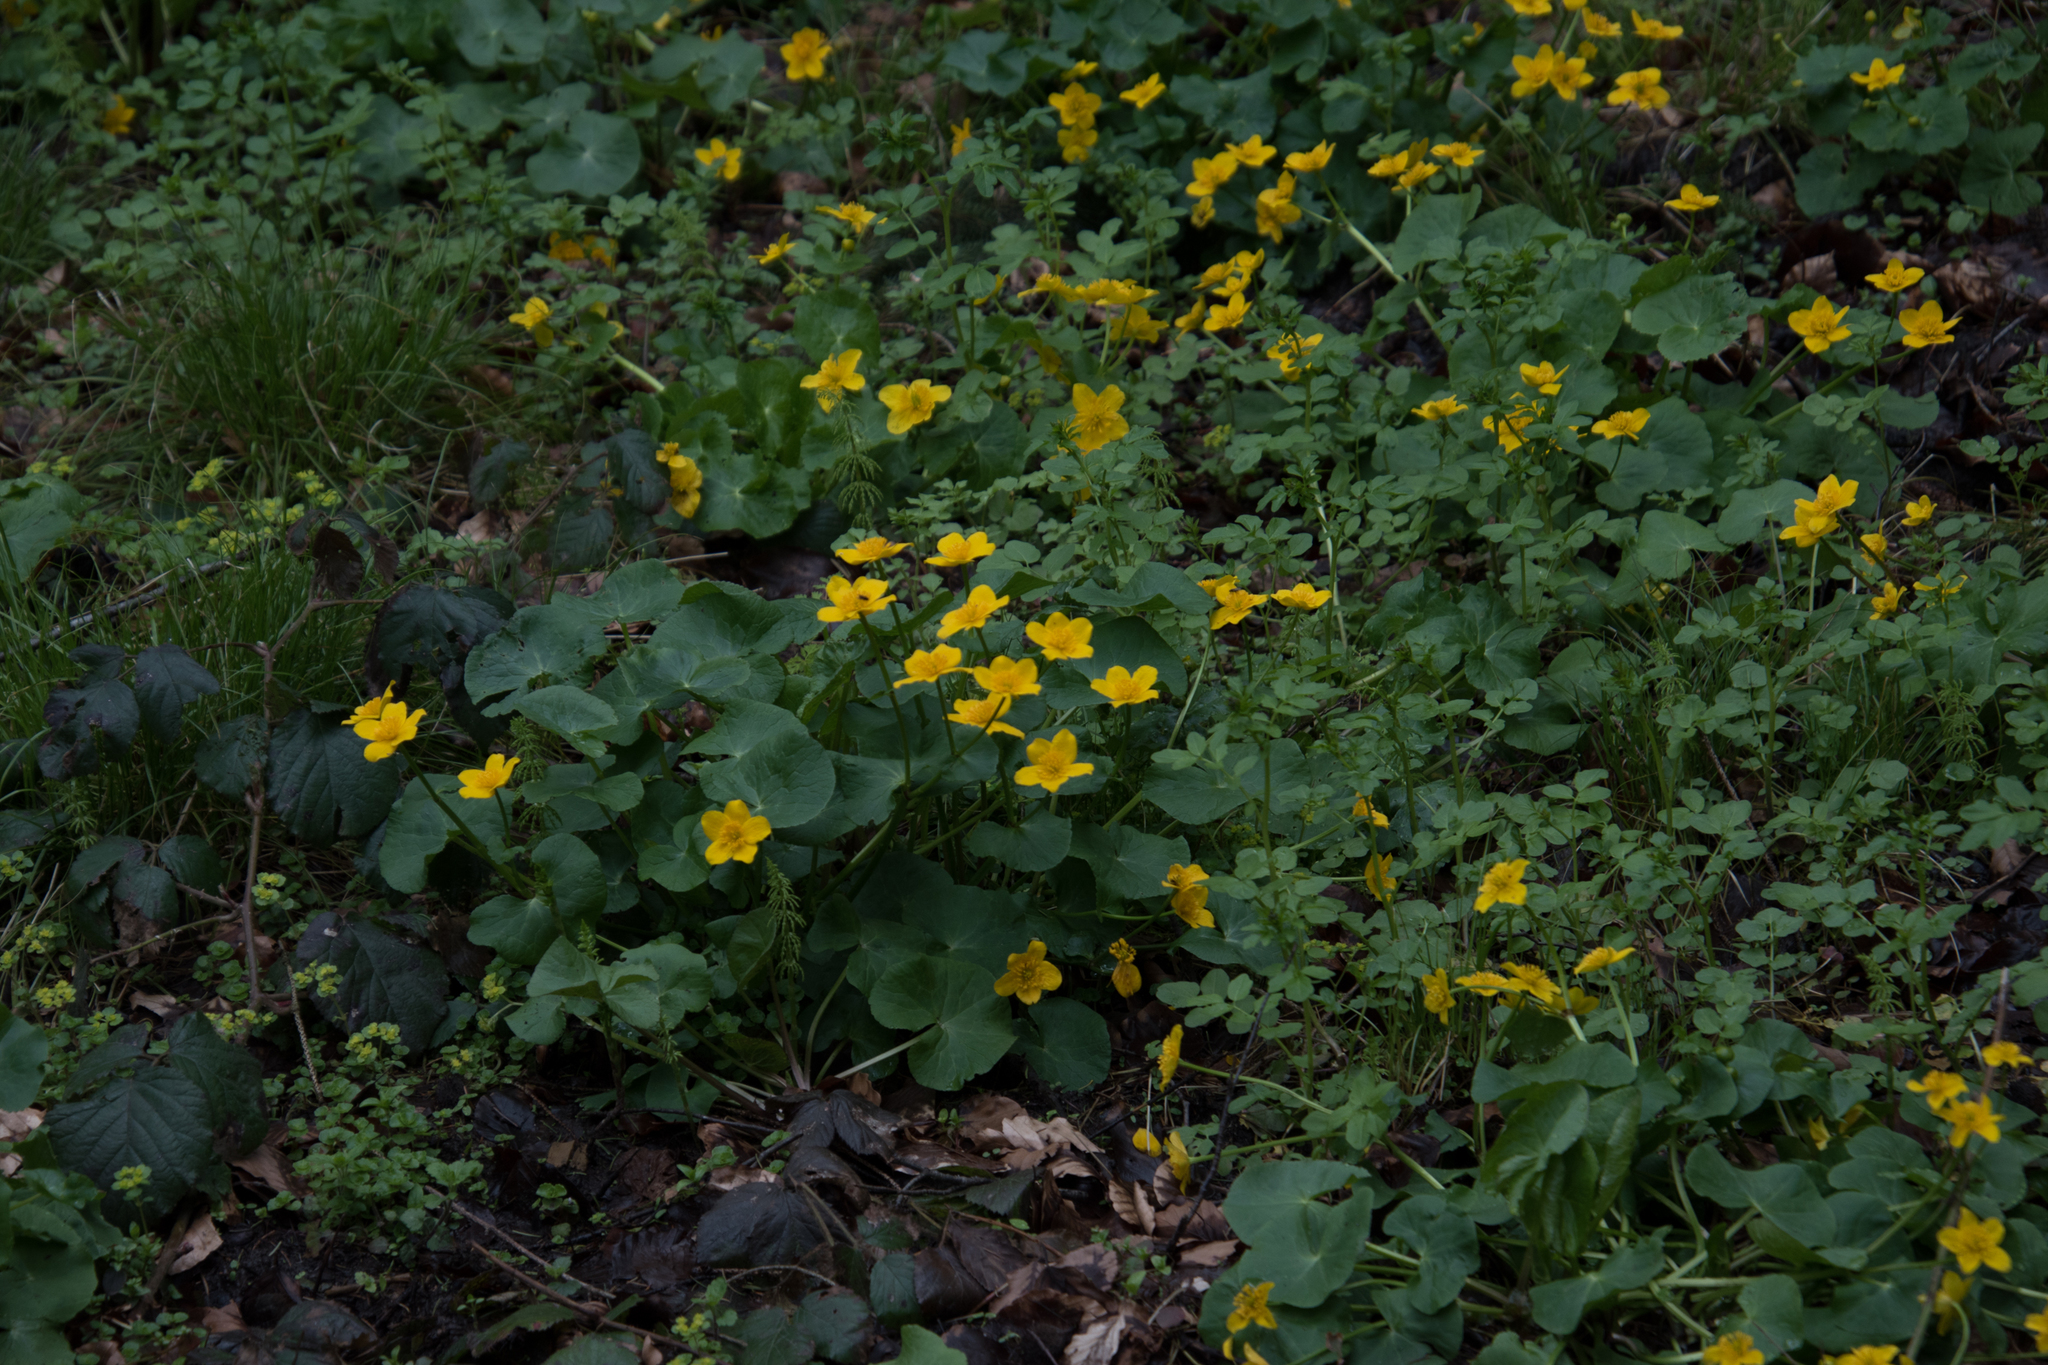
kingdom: Plantae
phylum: Tracheophyta
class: Magnoliopsida
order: Ranunculales
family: Ranunculaceae
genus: Caltha
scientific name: Caltha palustris
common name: Marsh marigold
